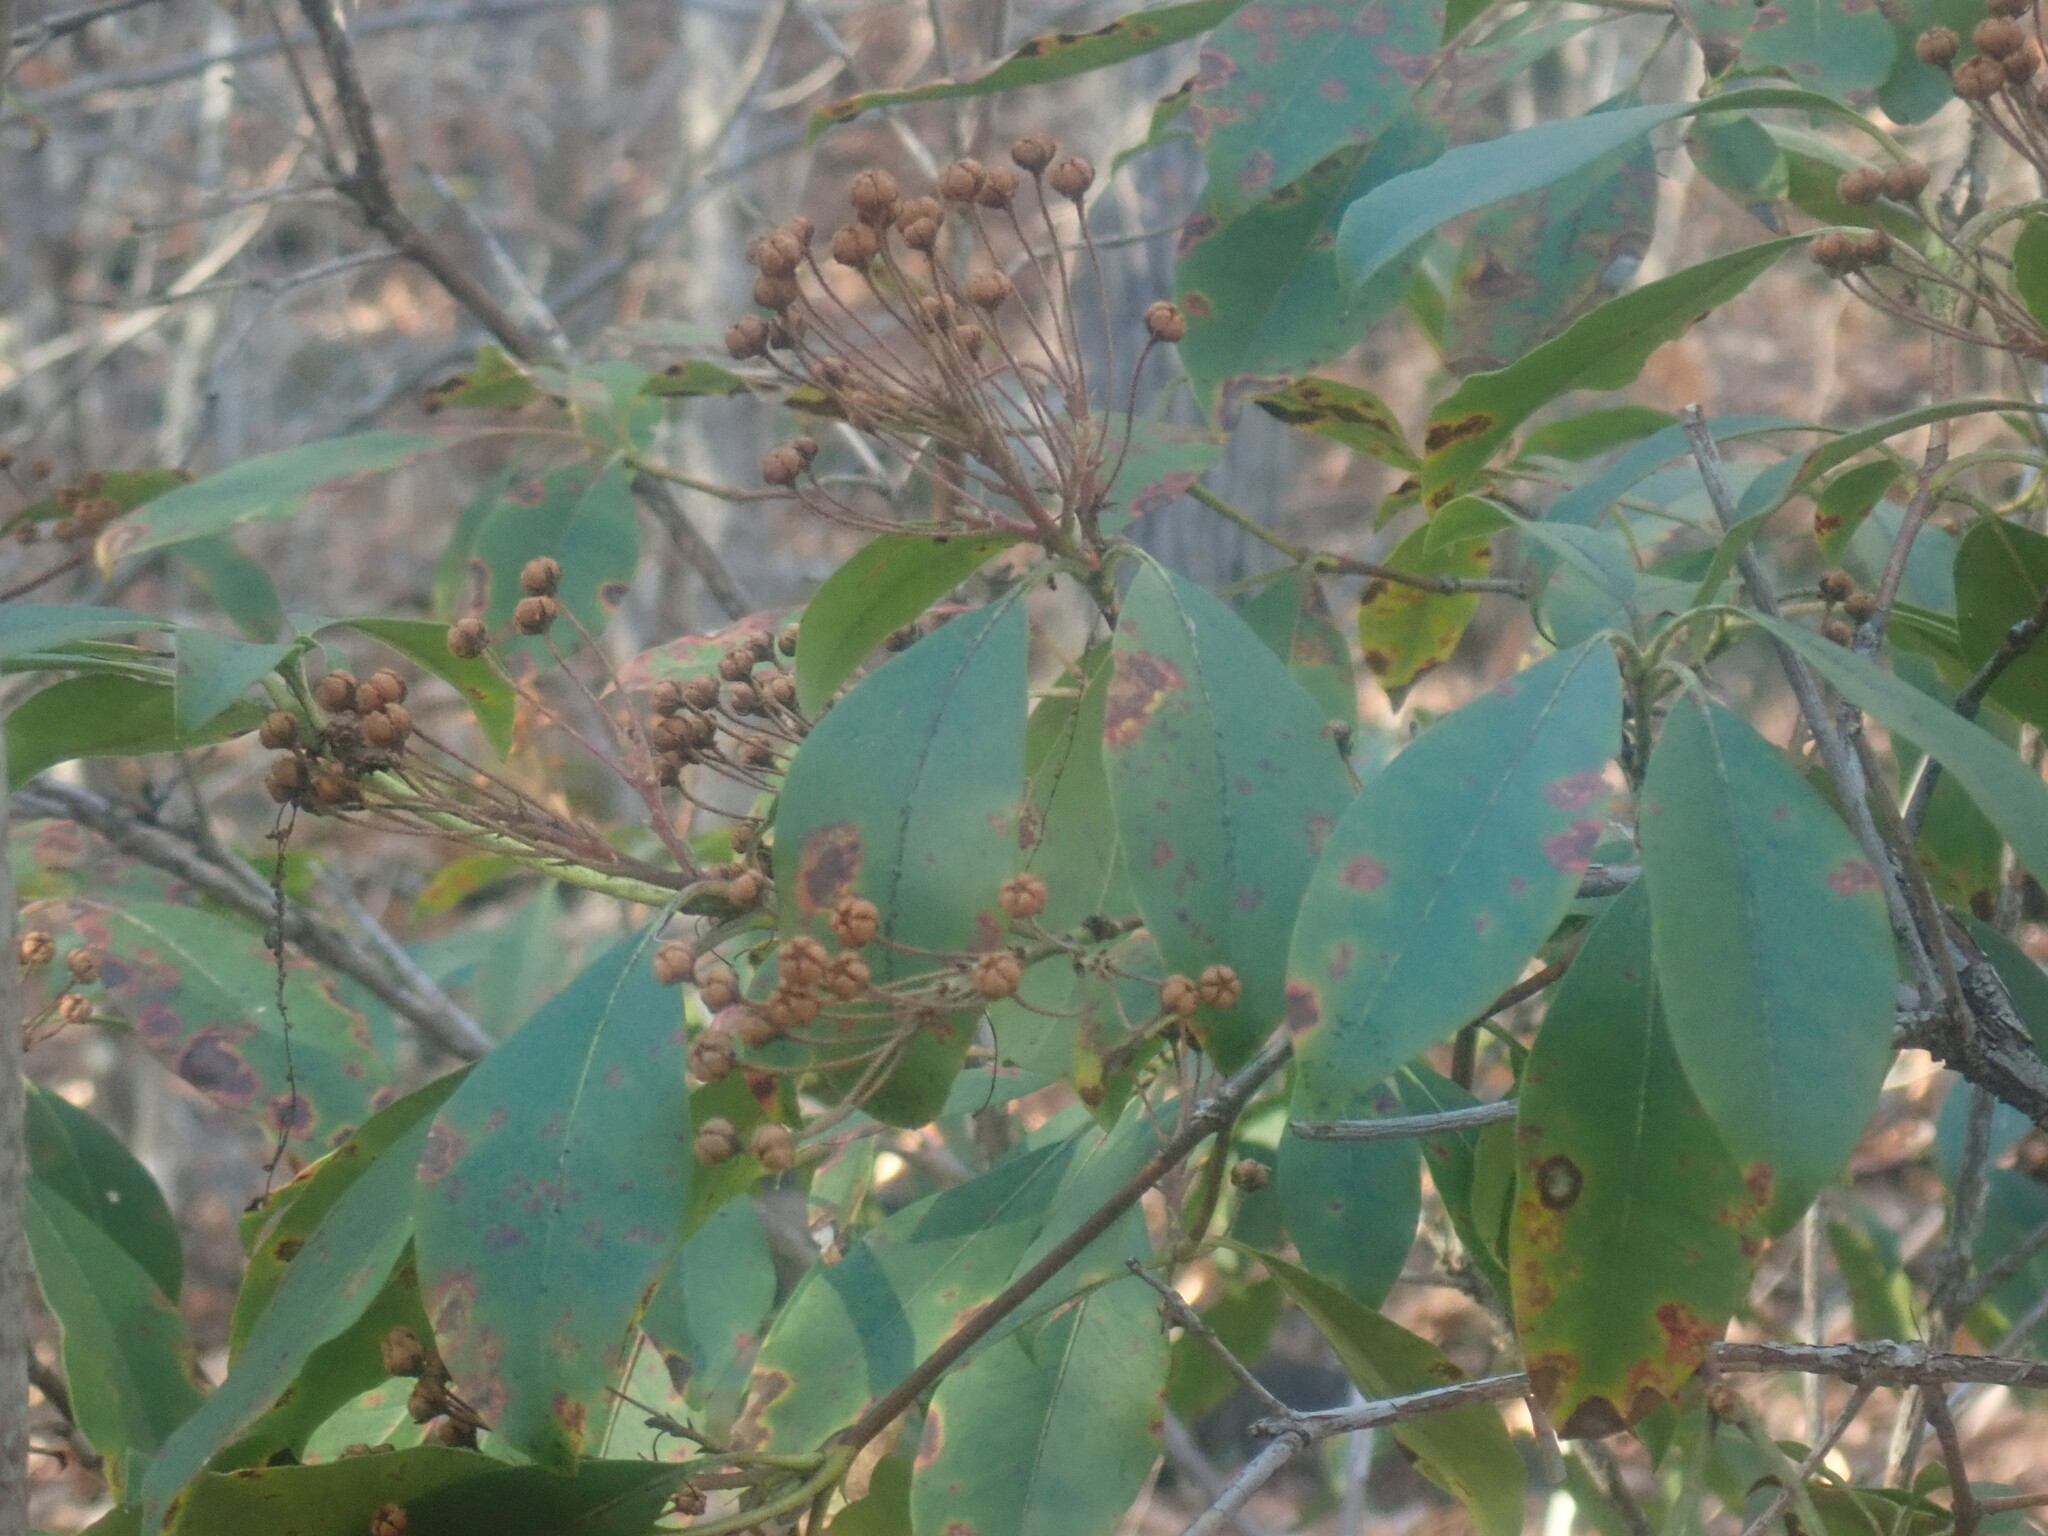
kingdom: Plantae
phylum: Tracheophyta
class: Magnoliopsida
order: Ericales
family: Ericaceae
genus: Kalmia
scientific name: Kalmia latifolia
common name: Mountain-laurel
